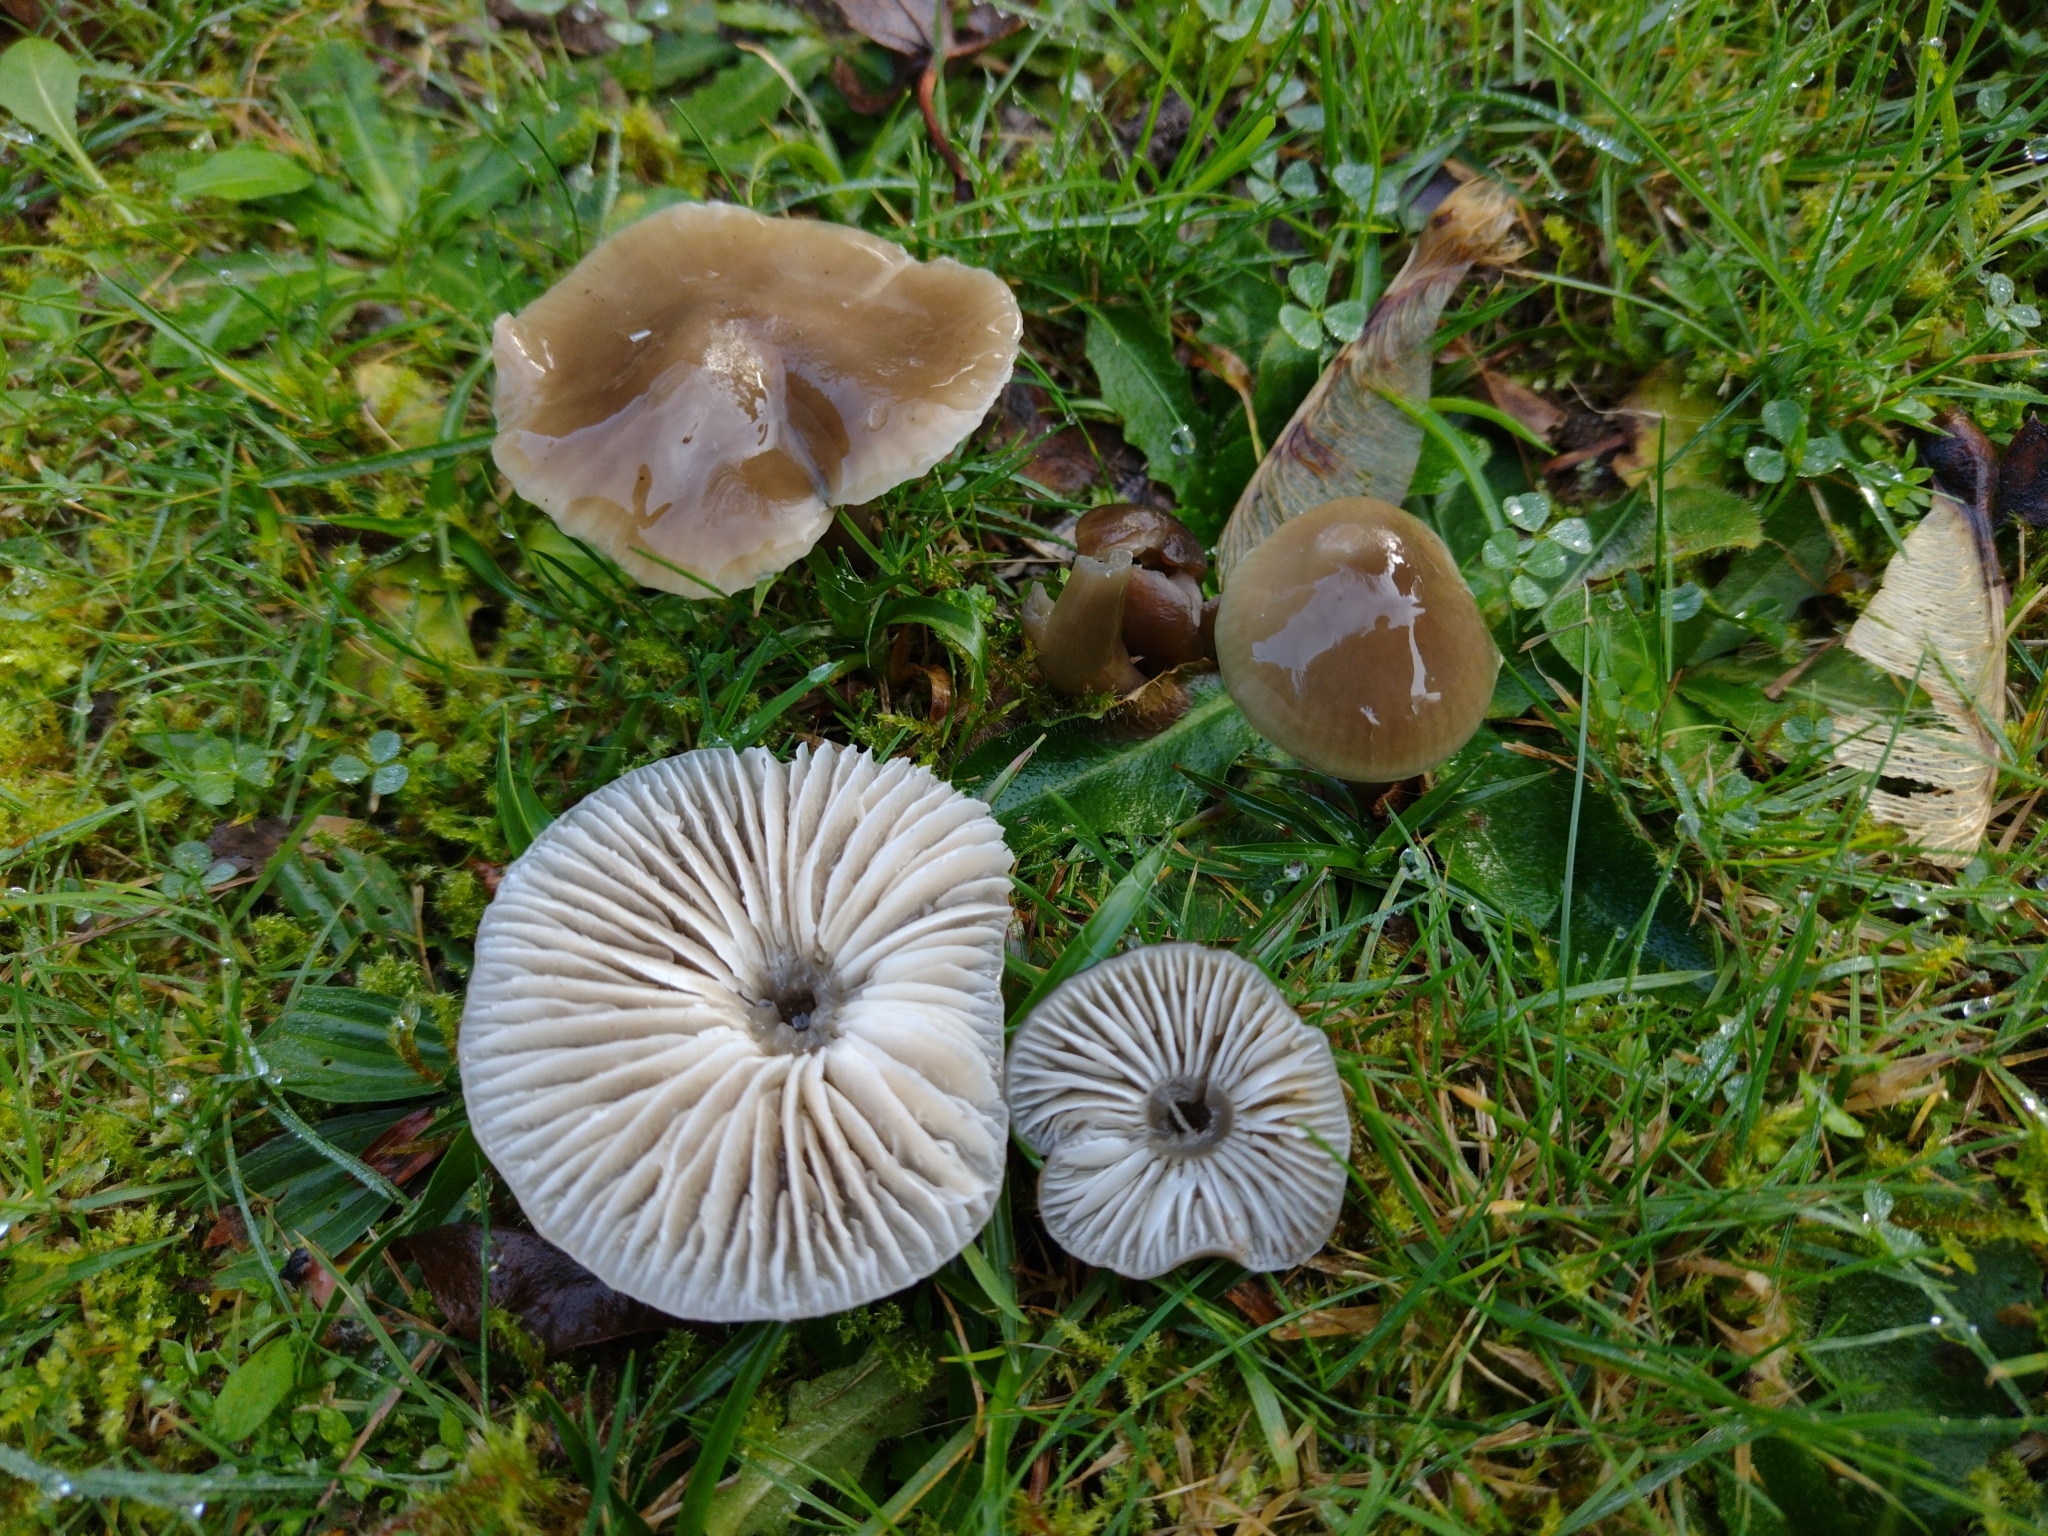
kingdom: Fungi
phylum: Basidiomycota
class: Agaricomycetes
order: Agaricales
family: Hygrophoraceae
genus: Gliophorus
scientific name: Gliophorus irrigatus
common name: Slimy waxcap
